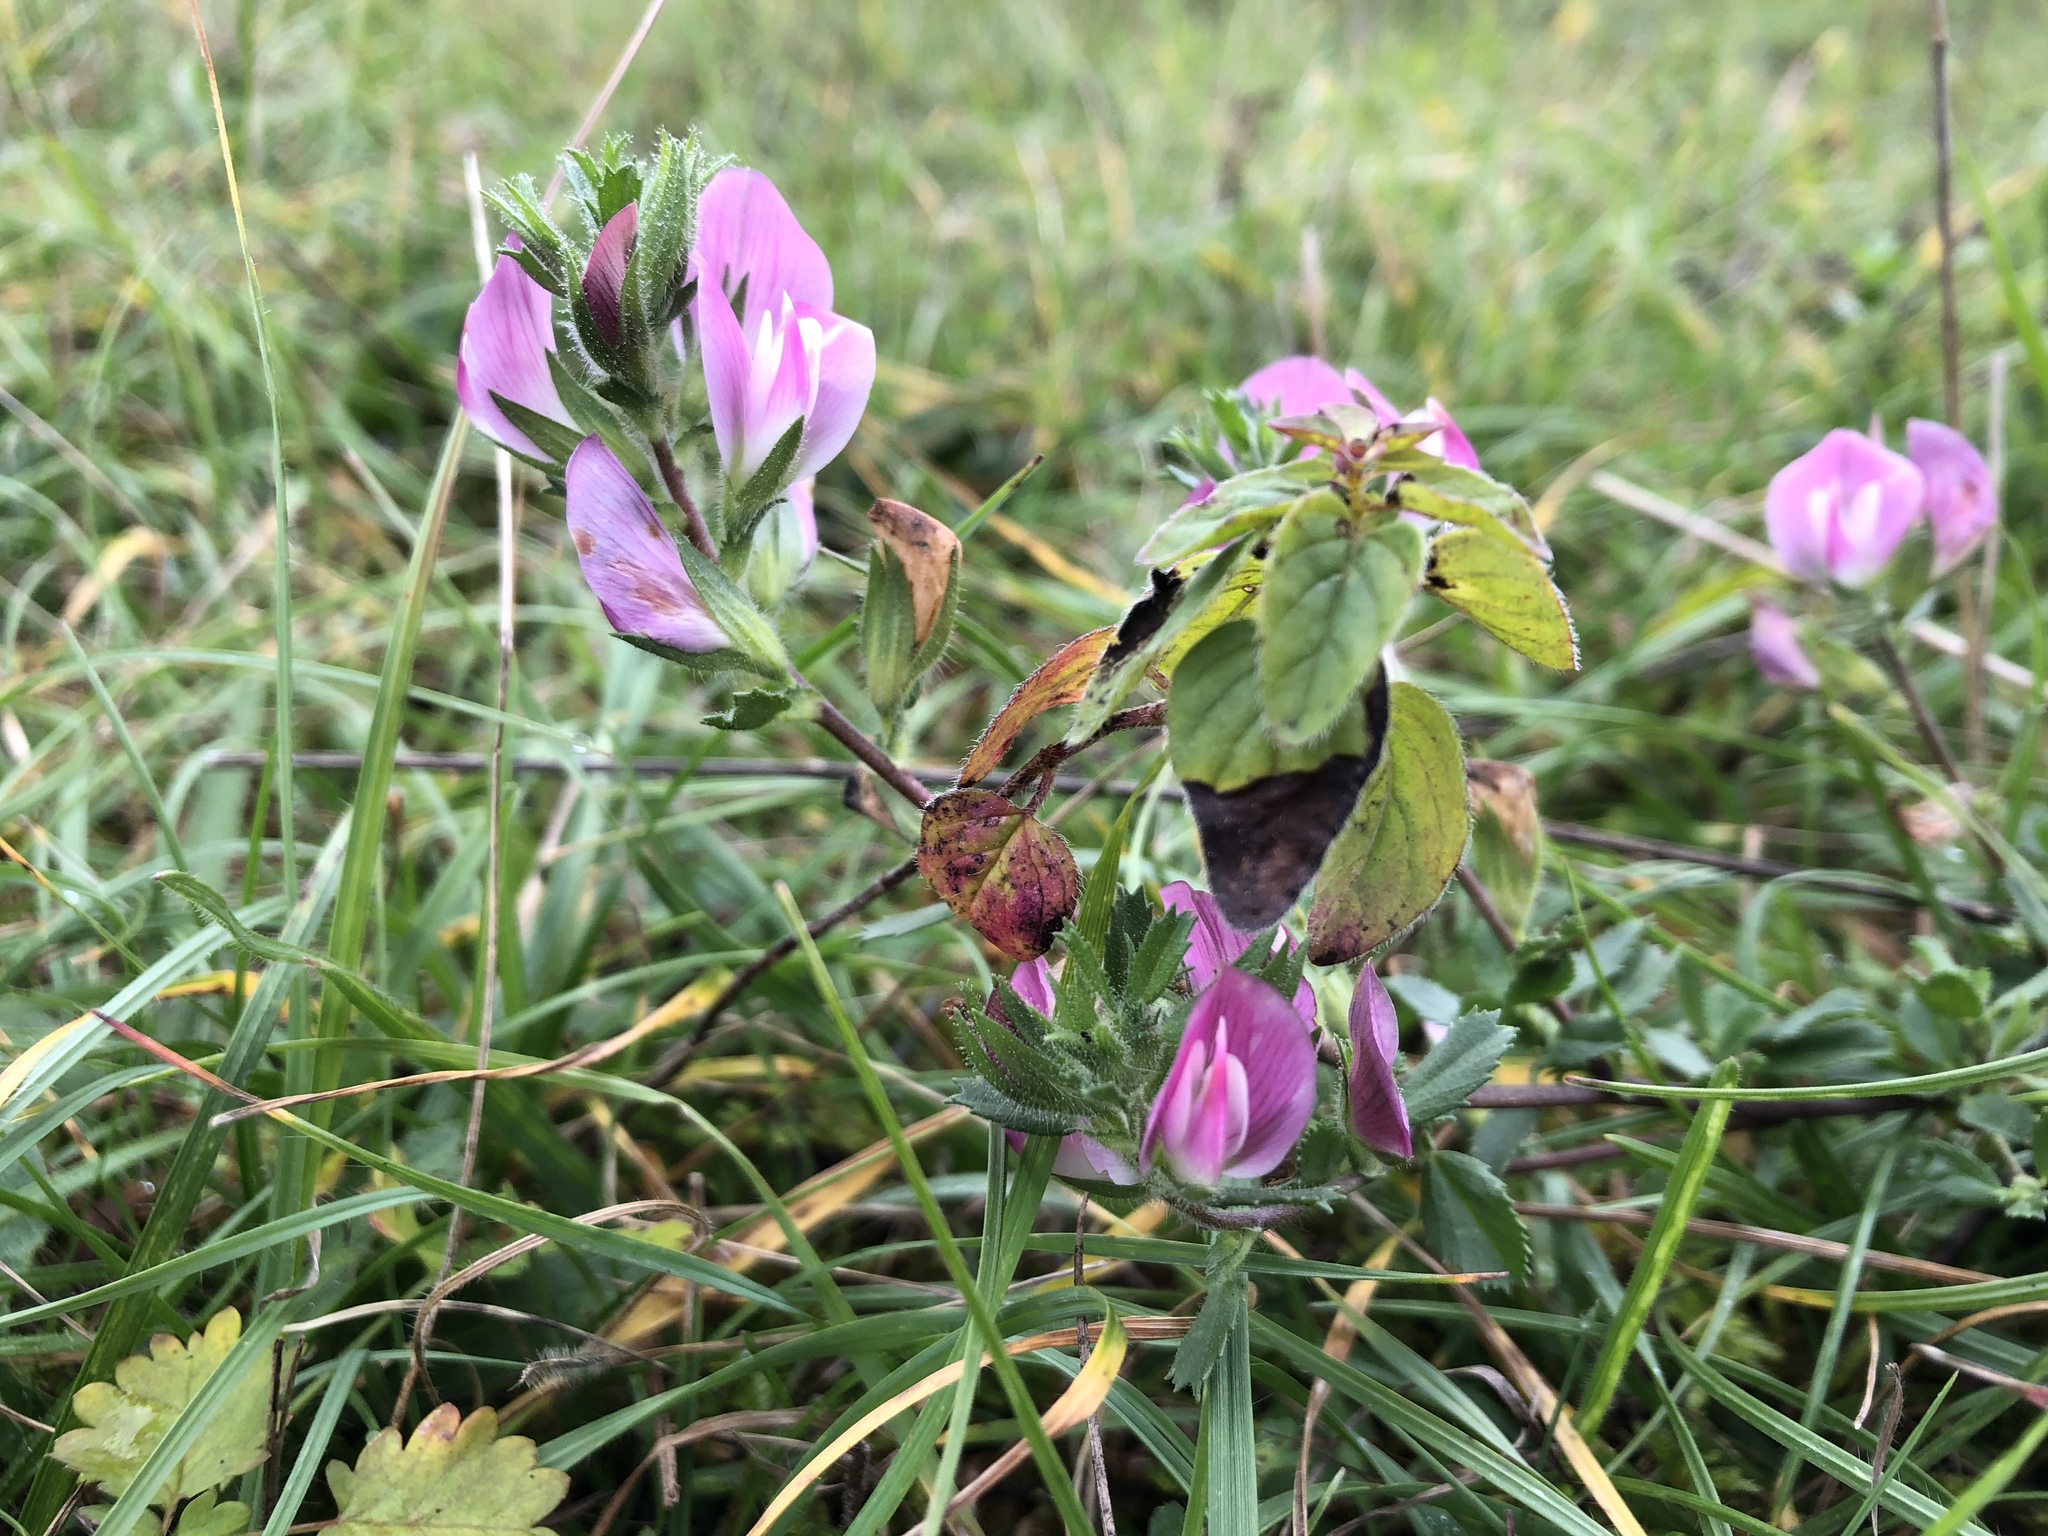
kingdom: Plantae
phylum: Tracheophyta
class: Magnoliopsida
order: Fabales
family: Fabaceae
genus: Ononis
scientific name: Ononis spinosa
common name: Spiny restharrow
